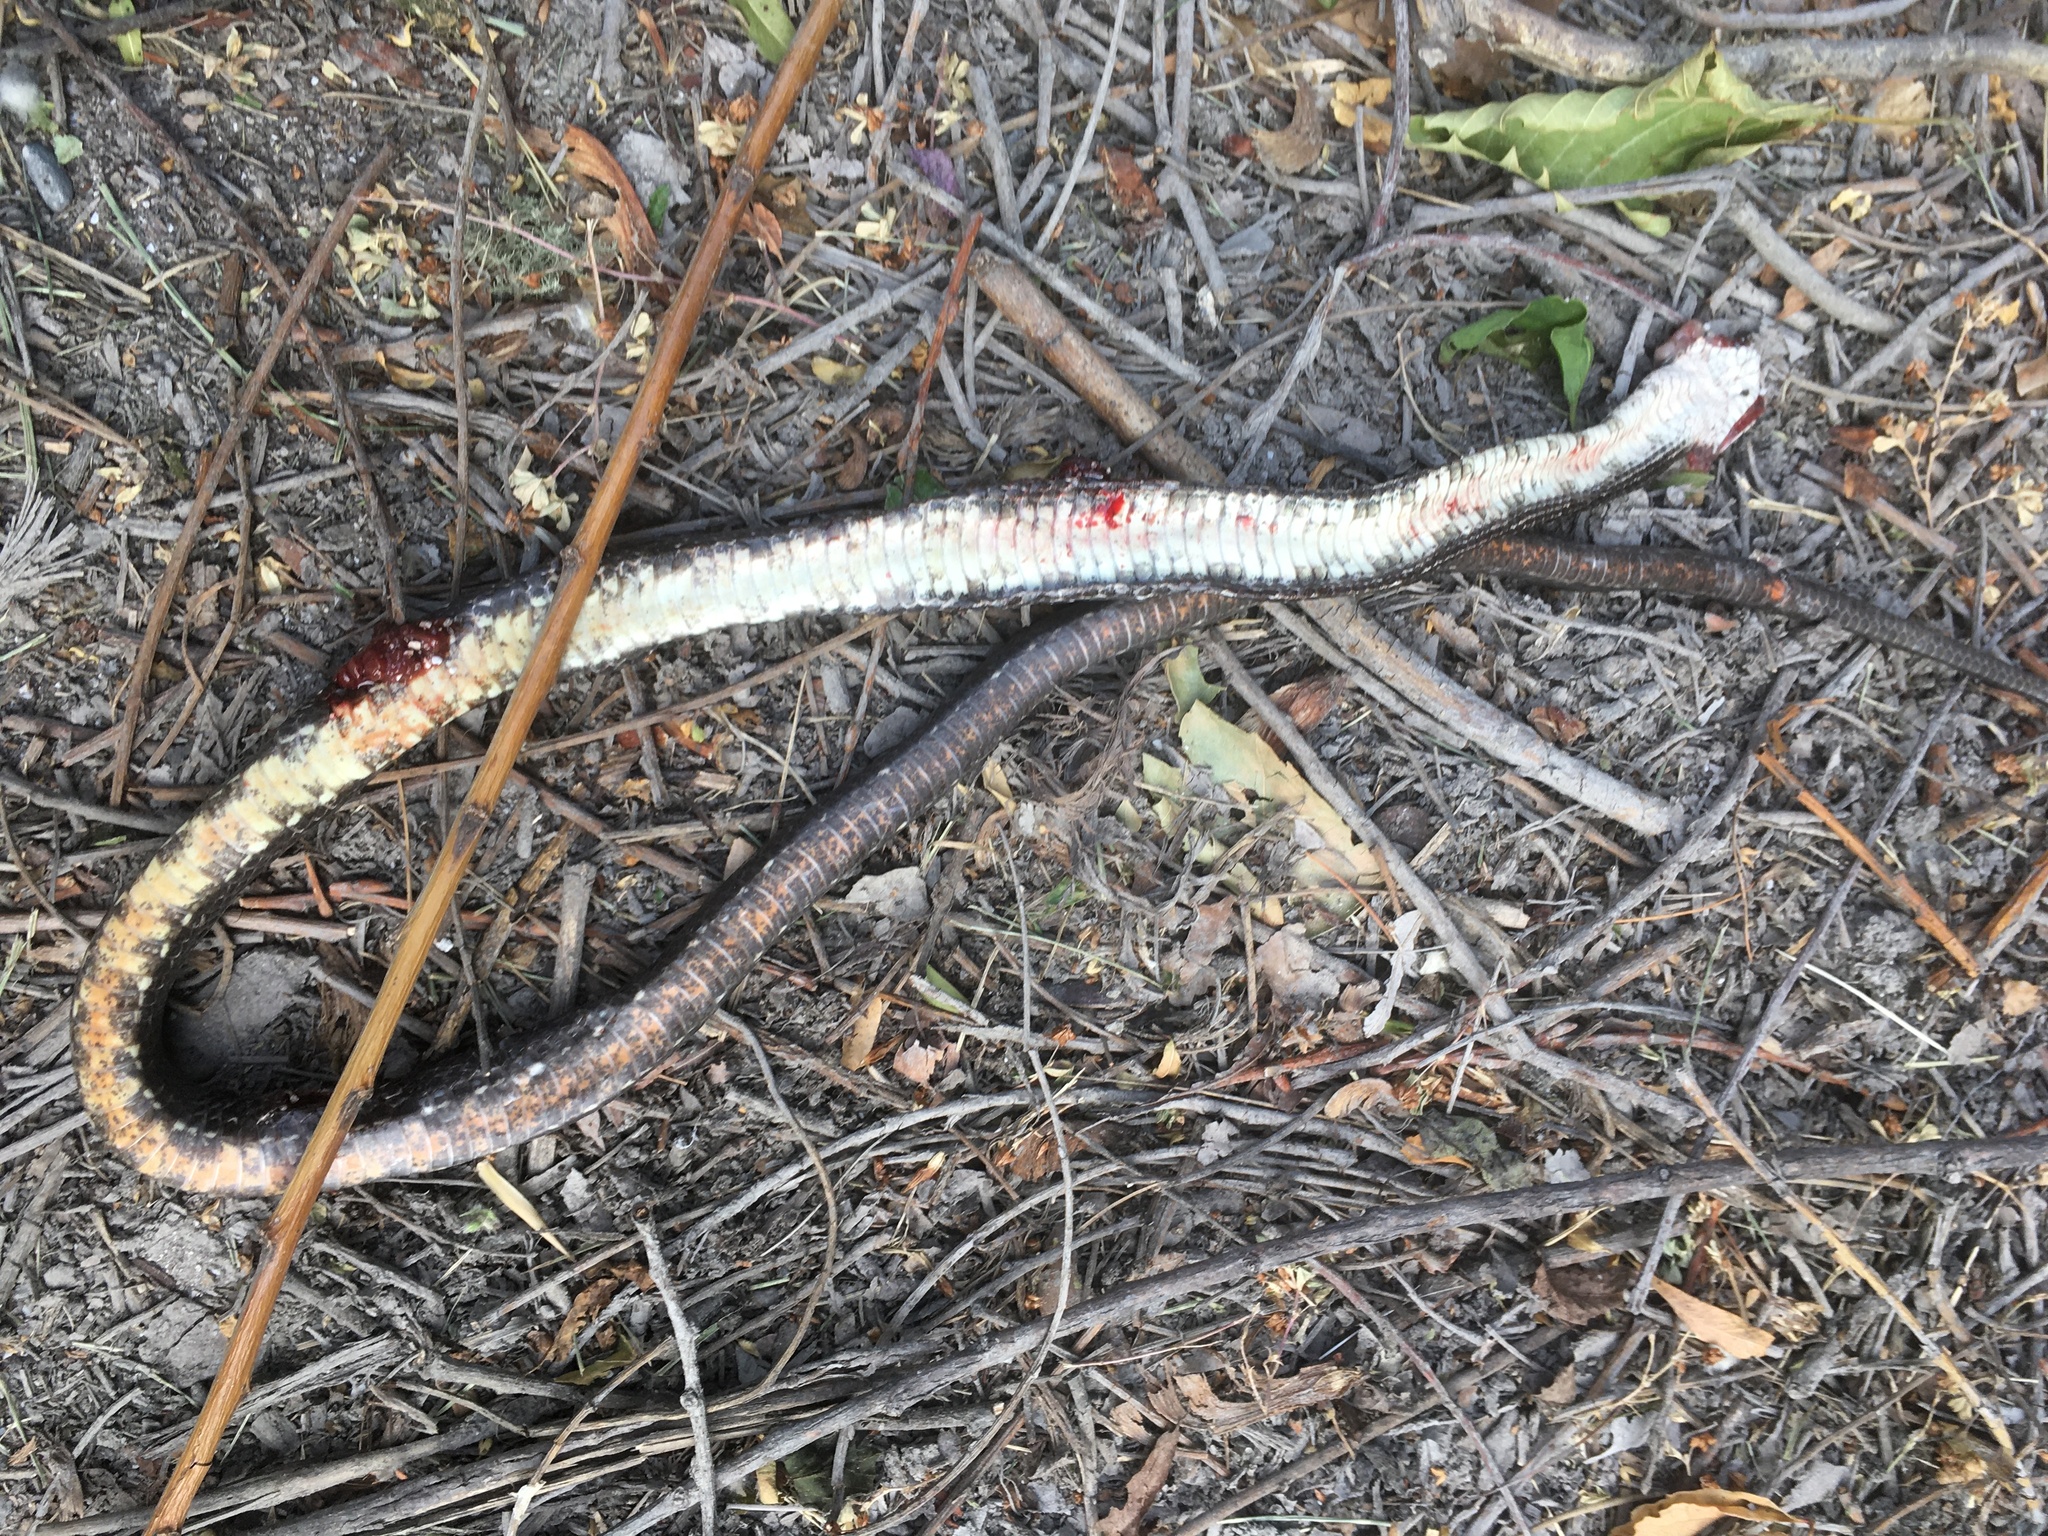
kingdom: Animalia
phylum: Chordata
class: Squamata
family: Colubridae
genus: Pantherophis
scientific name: Pantherophis alleghaniensis
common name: Eastern rat snake
